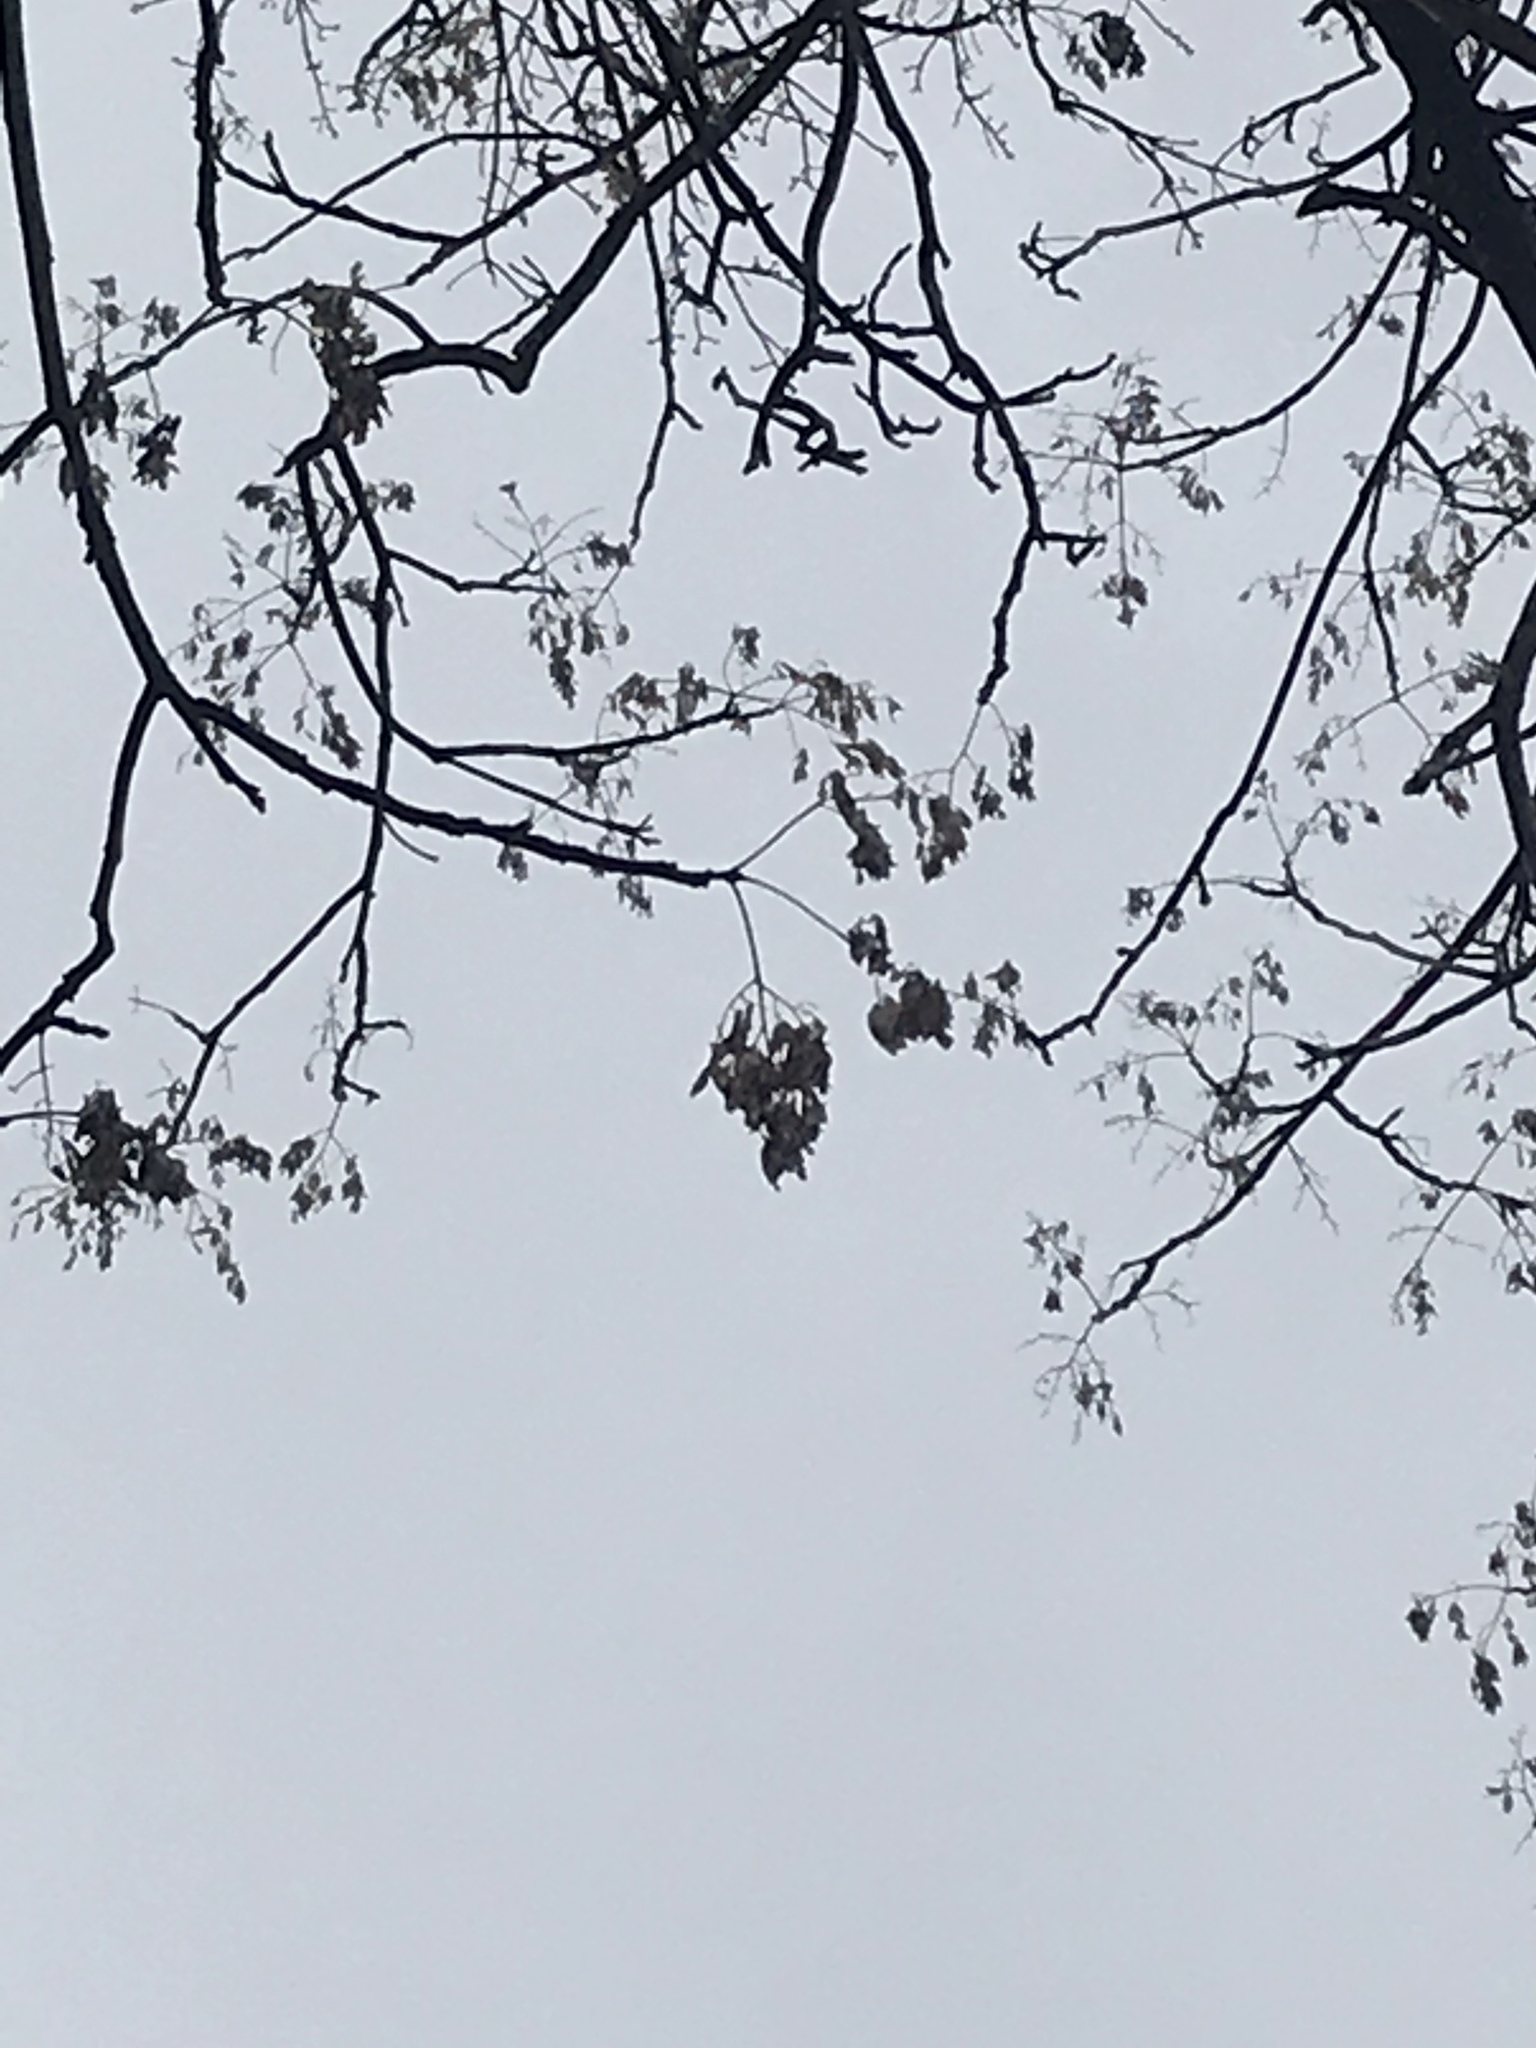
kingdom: Plantae
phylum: Tracheophyta
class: Magnoliopsida
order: Sapindales
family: Simaroubaceae
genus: Ailanthus
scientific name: Ailanthus altissima
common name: Tree-of-heaven
